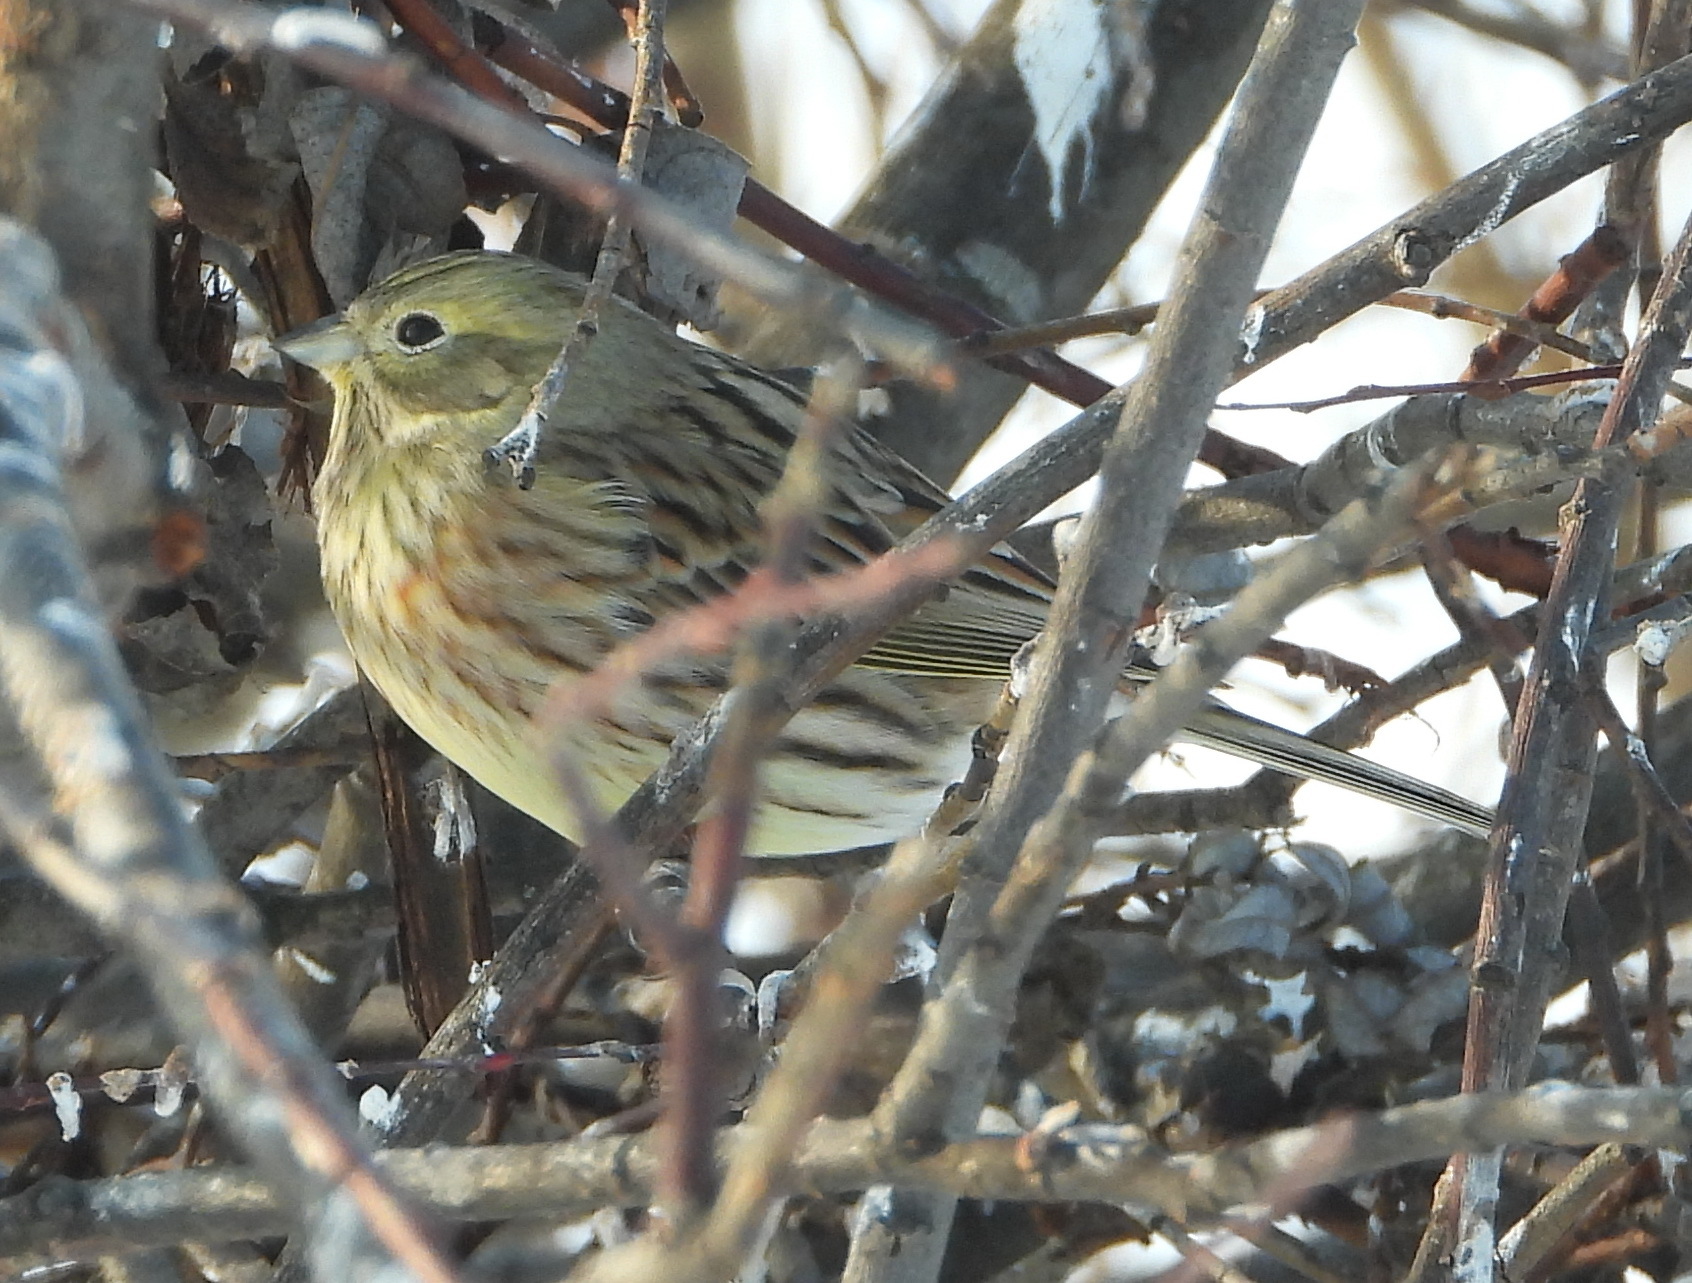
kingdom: Animalia
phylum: Chordata
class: Aves
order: Passeriformes
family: Emberizidae
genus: Emberiza
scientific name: Emberiza citrinella
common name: Yellowhammer
